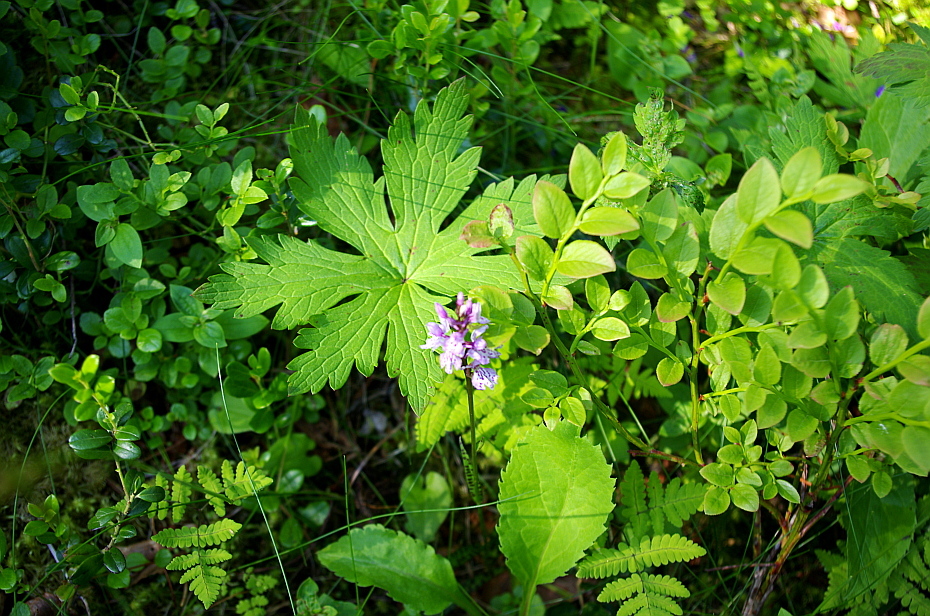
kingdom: Plantae
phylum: Tracheophyta
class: Liliopsida
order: Asparagales
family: Orchidaceae
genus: Dactylorhiza
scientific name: Dactylorhiza maculata
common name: Heath spotted-orchid
